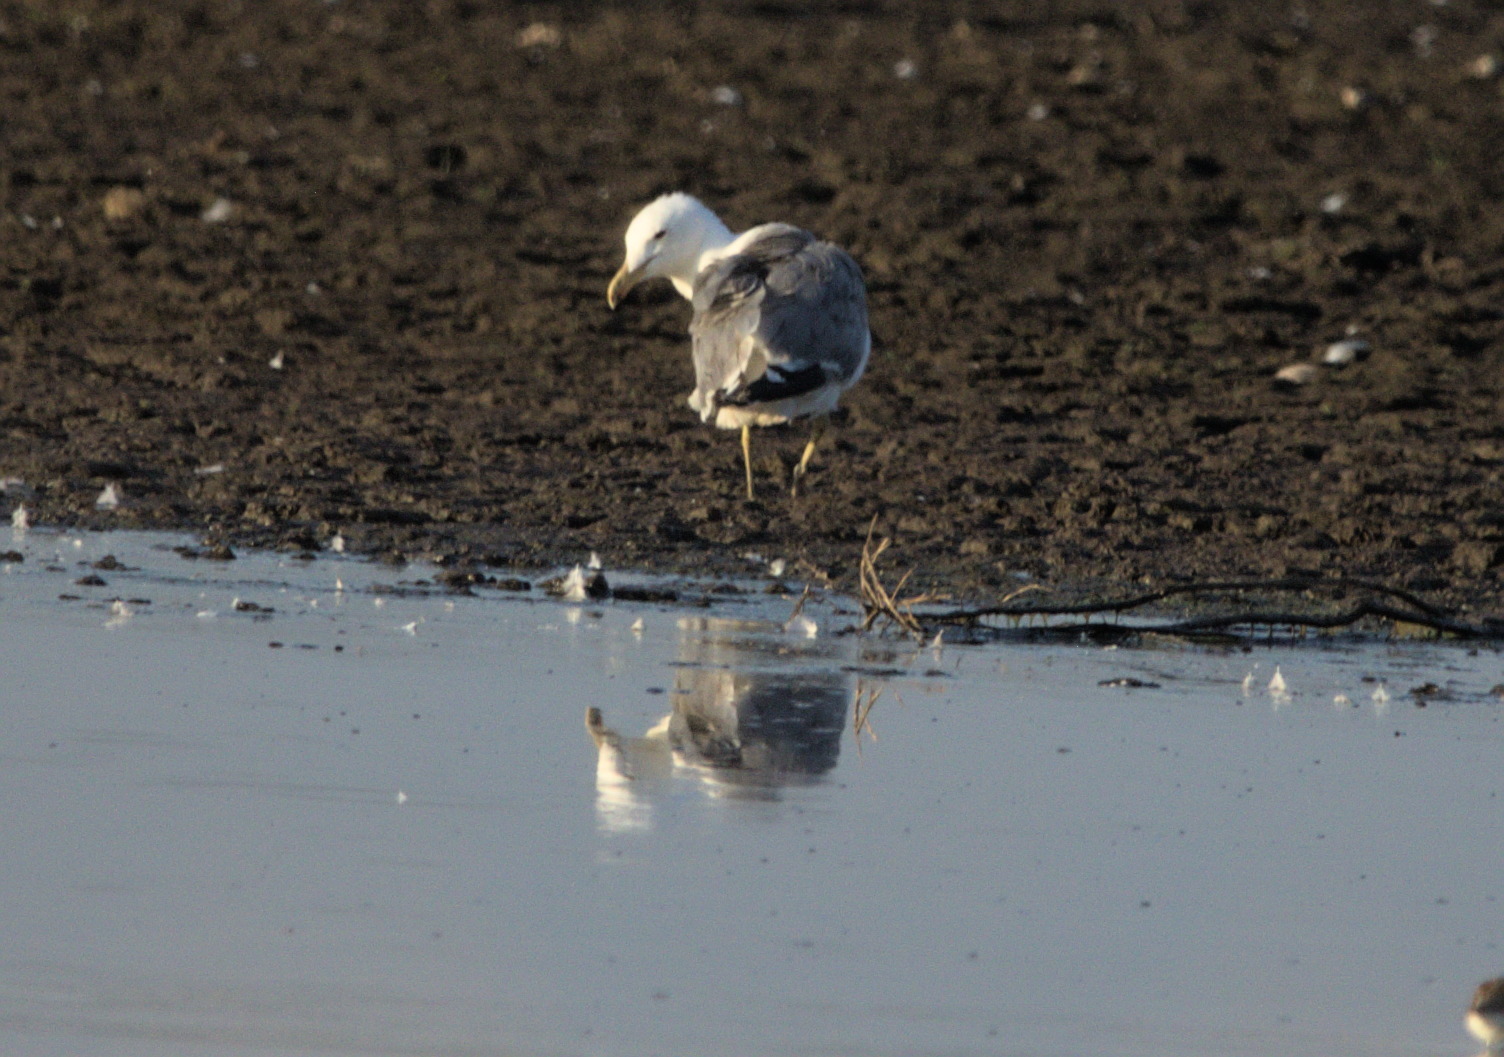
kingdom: Animalia
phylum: Chordata
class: Aves
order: Charadriiformes
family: Laridae
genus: Larus
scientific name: Larus californicus
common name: California gull
